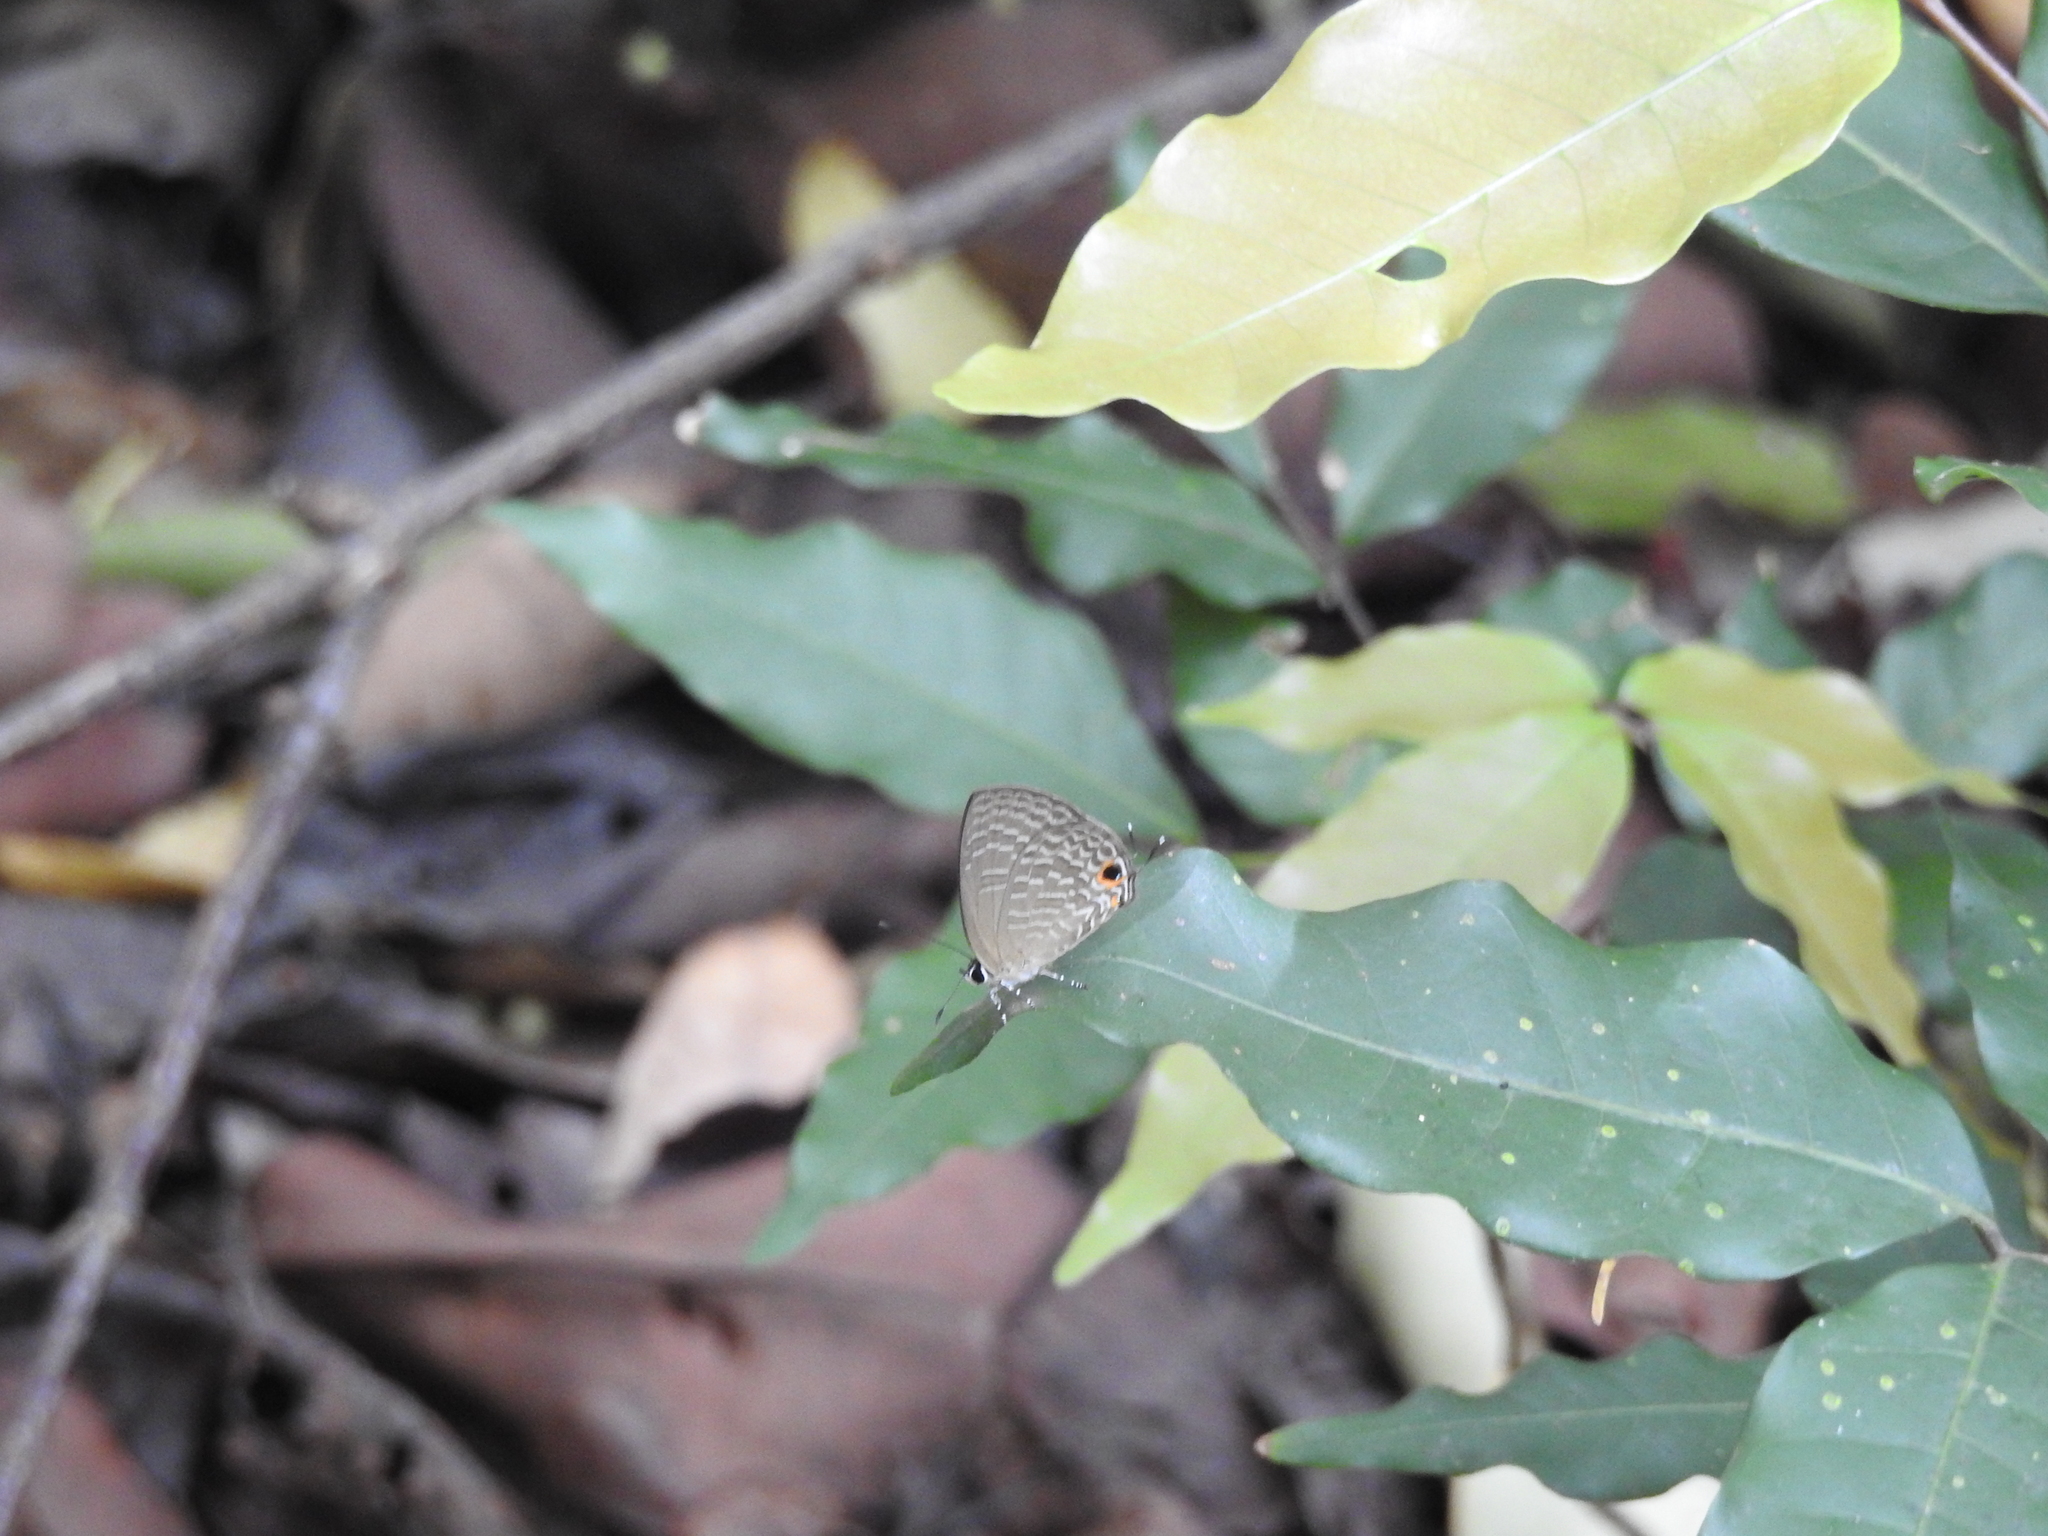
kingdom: Animalia
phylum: Arthropoda
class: Insecta
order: Lepidoptera
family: Lycaenidae
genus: Jamides
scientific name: Jamides bochus
